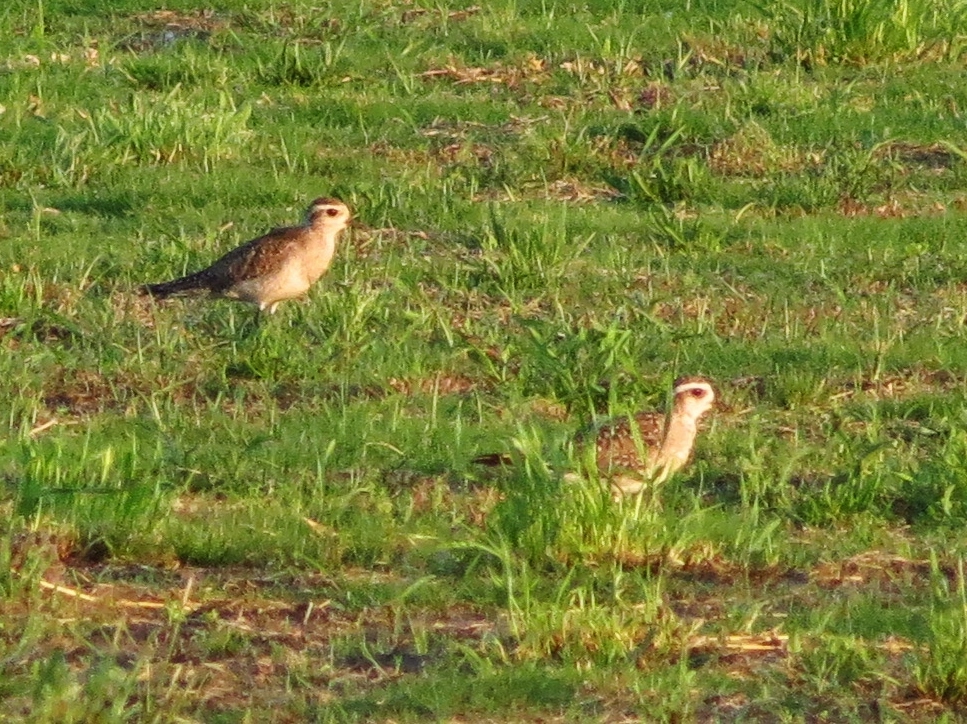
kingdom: Animalia
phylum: Chordata
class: Aves
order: Charadriiformes
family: Charadriidae
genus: Pluvialis
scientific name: Pluvialis dominica
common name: American golden plover
